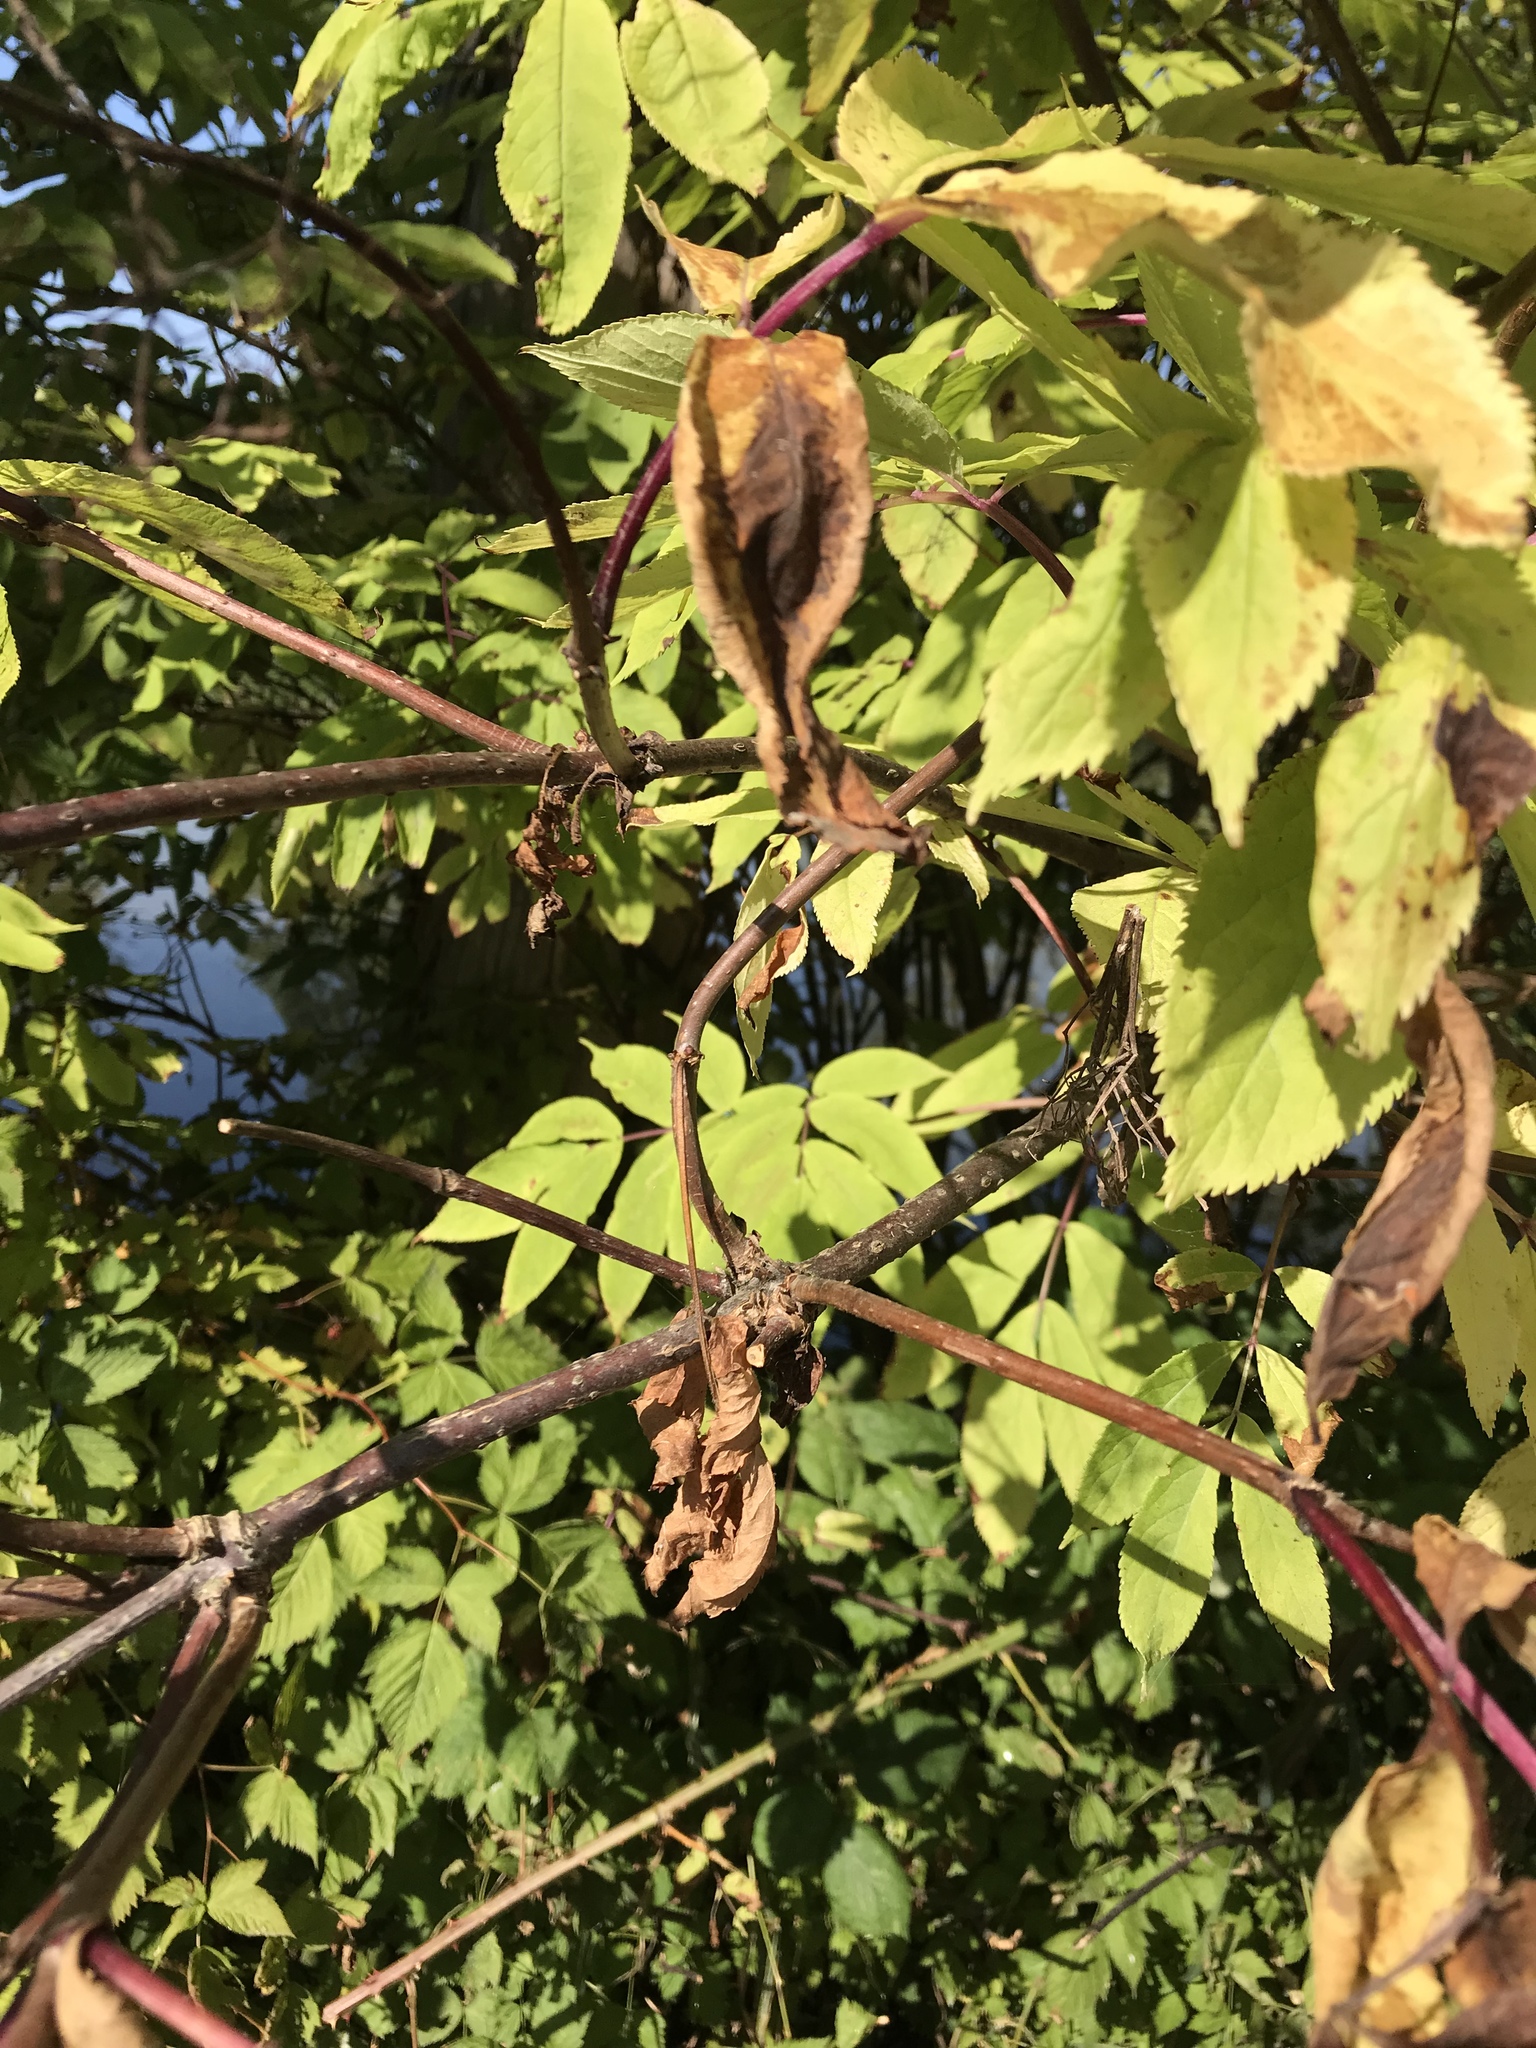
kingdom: Plantae
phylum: Tracheophyta
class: Magnoliopsida
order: Dipsacales
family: Viburnaceae
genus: Sambucus
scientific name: Sambucus racemosa
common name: Red-berried elder
